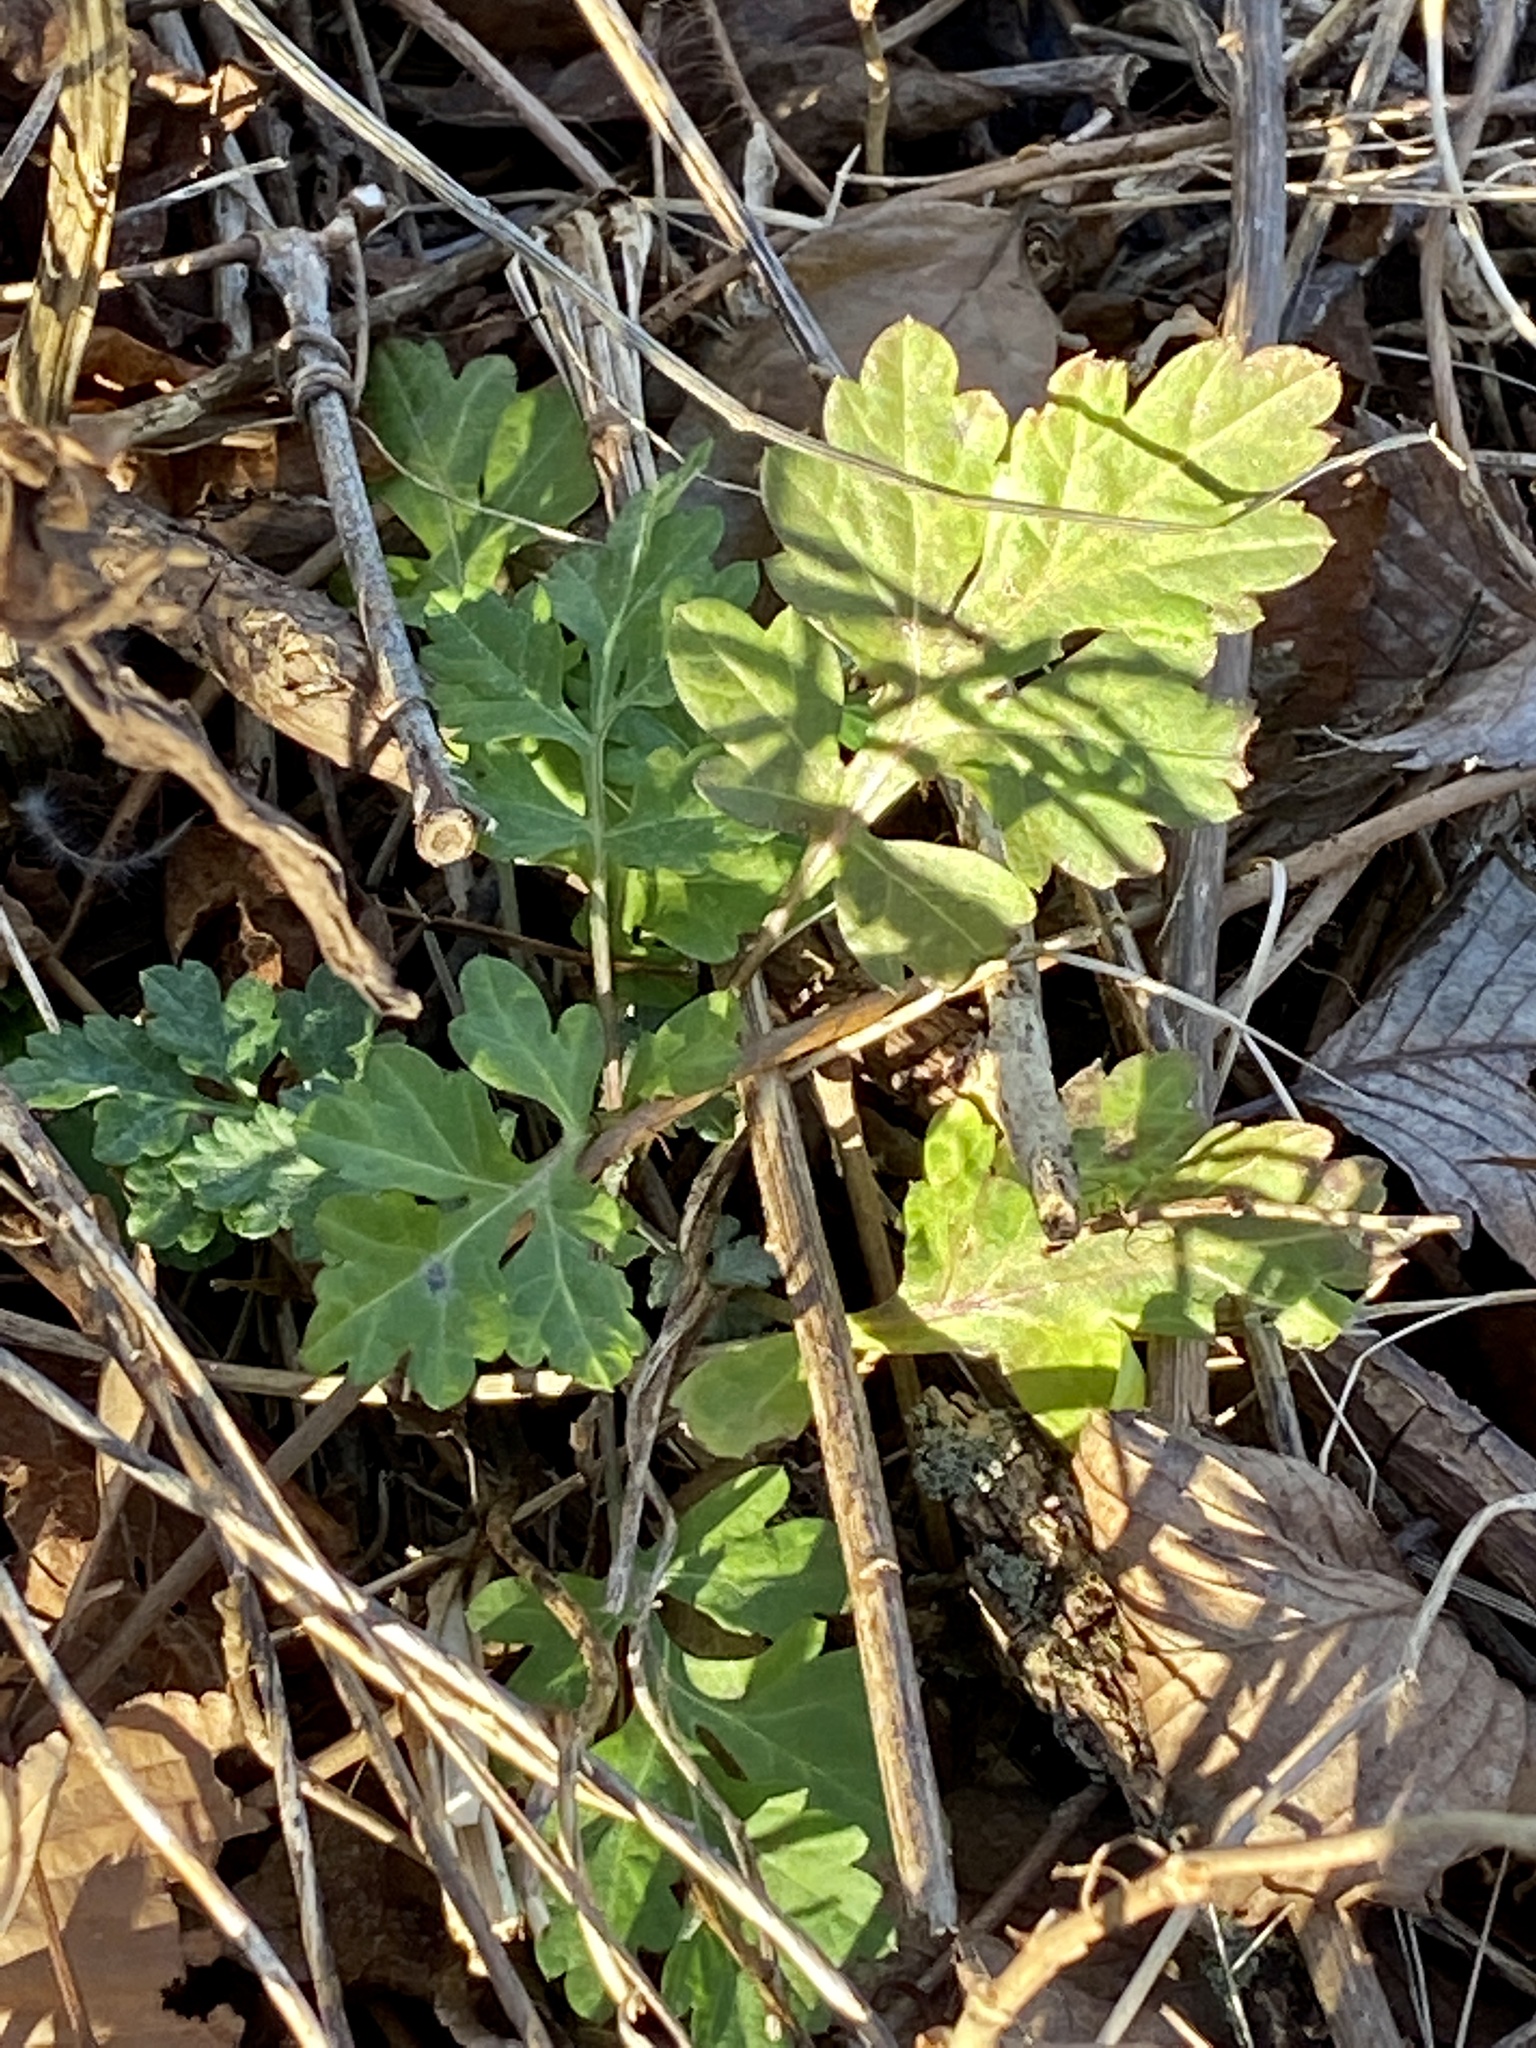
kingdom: Plantae
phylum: Tracheophyta
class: Magnoliopsida
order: Asterales
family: Asteraceae
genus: Artemisia
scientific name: Artemisia vulgaris
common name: Mugwort
